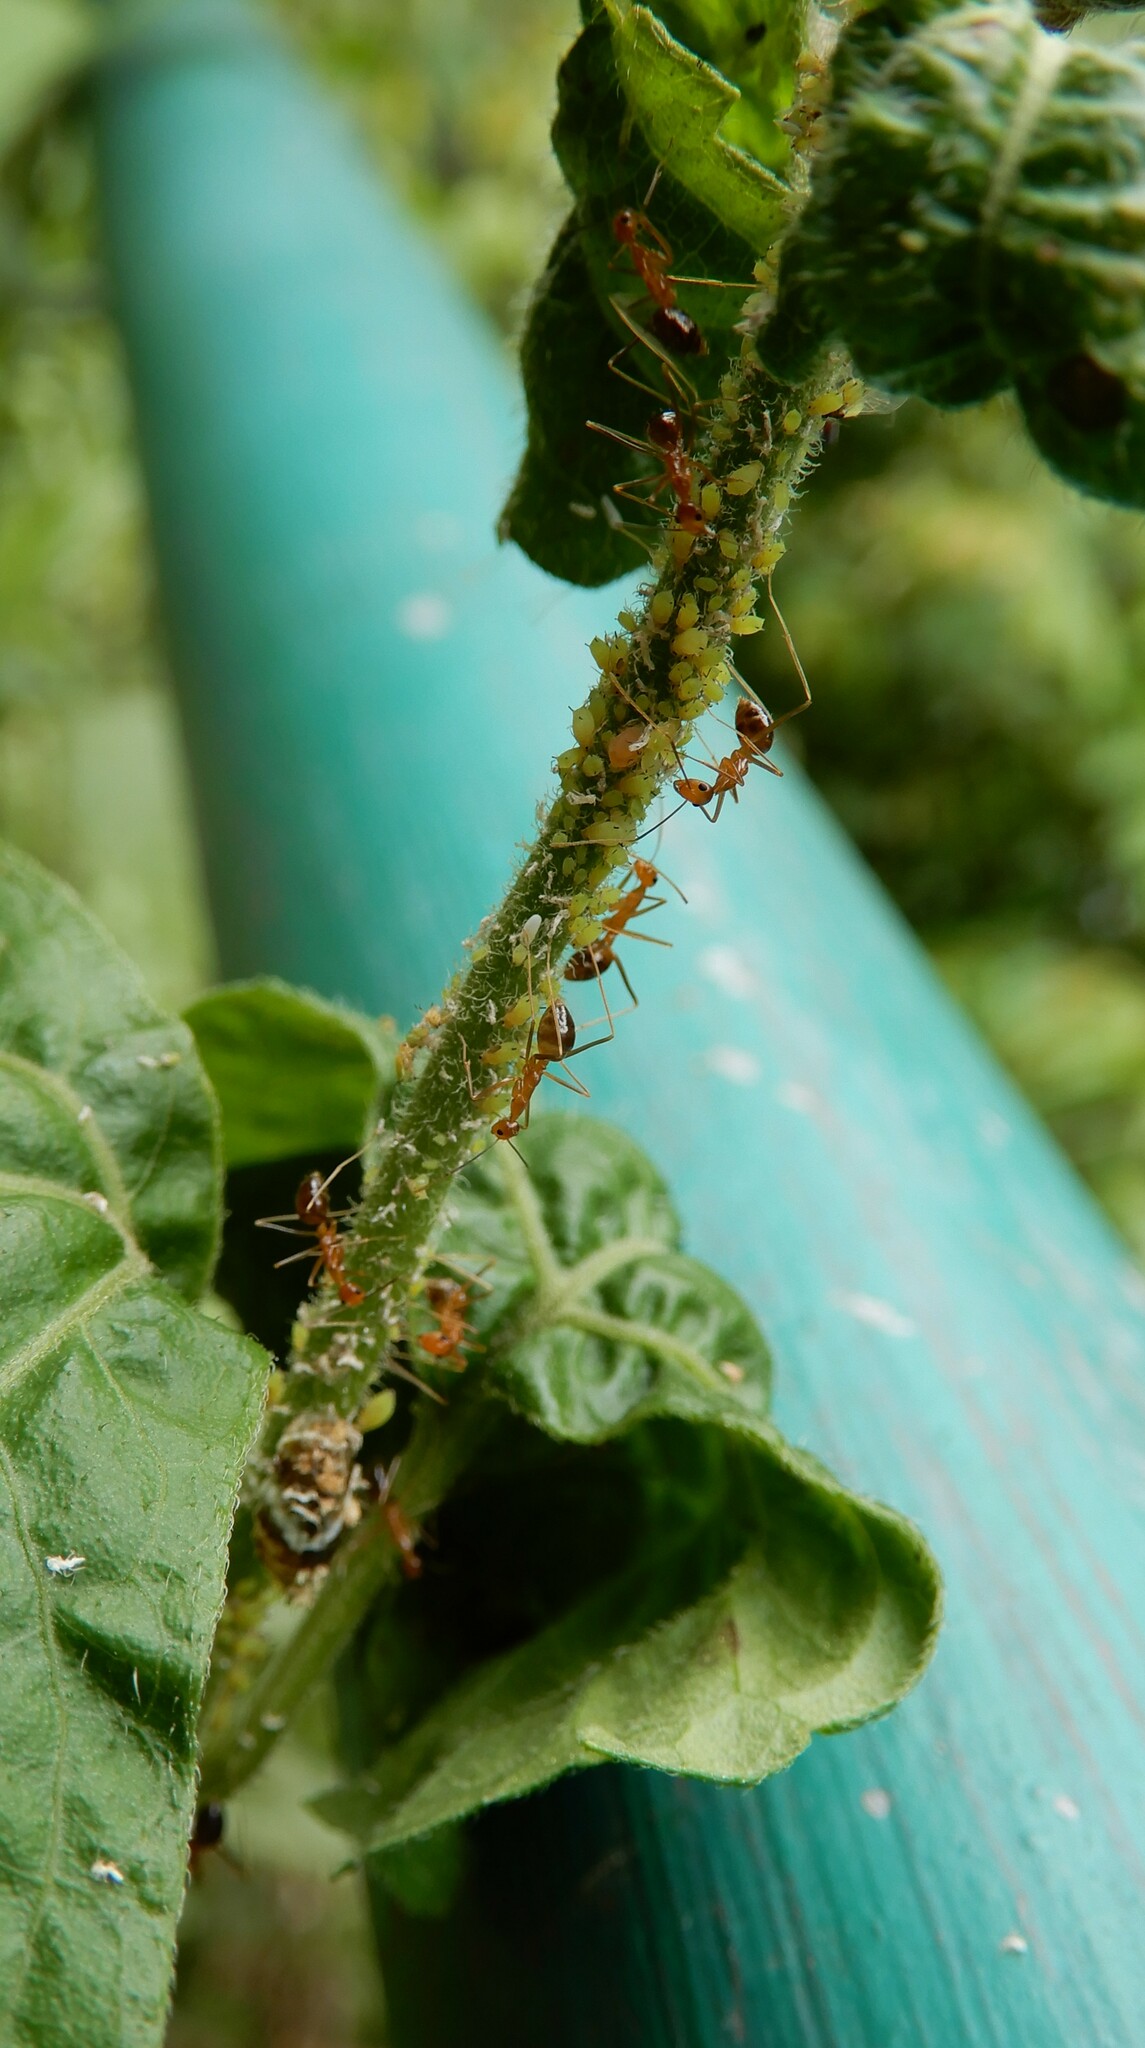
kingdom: Animalia
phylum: Arthropoda
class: Insecta
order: Hymenoptera
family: Formicidae
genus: Anoplolepis
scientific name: Anoplolepis gracilipes
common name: Ant
